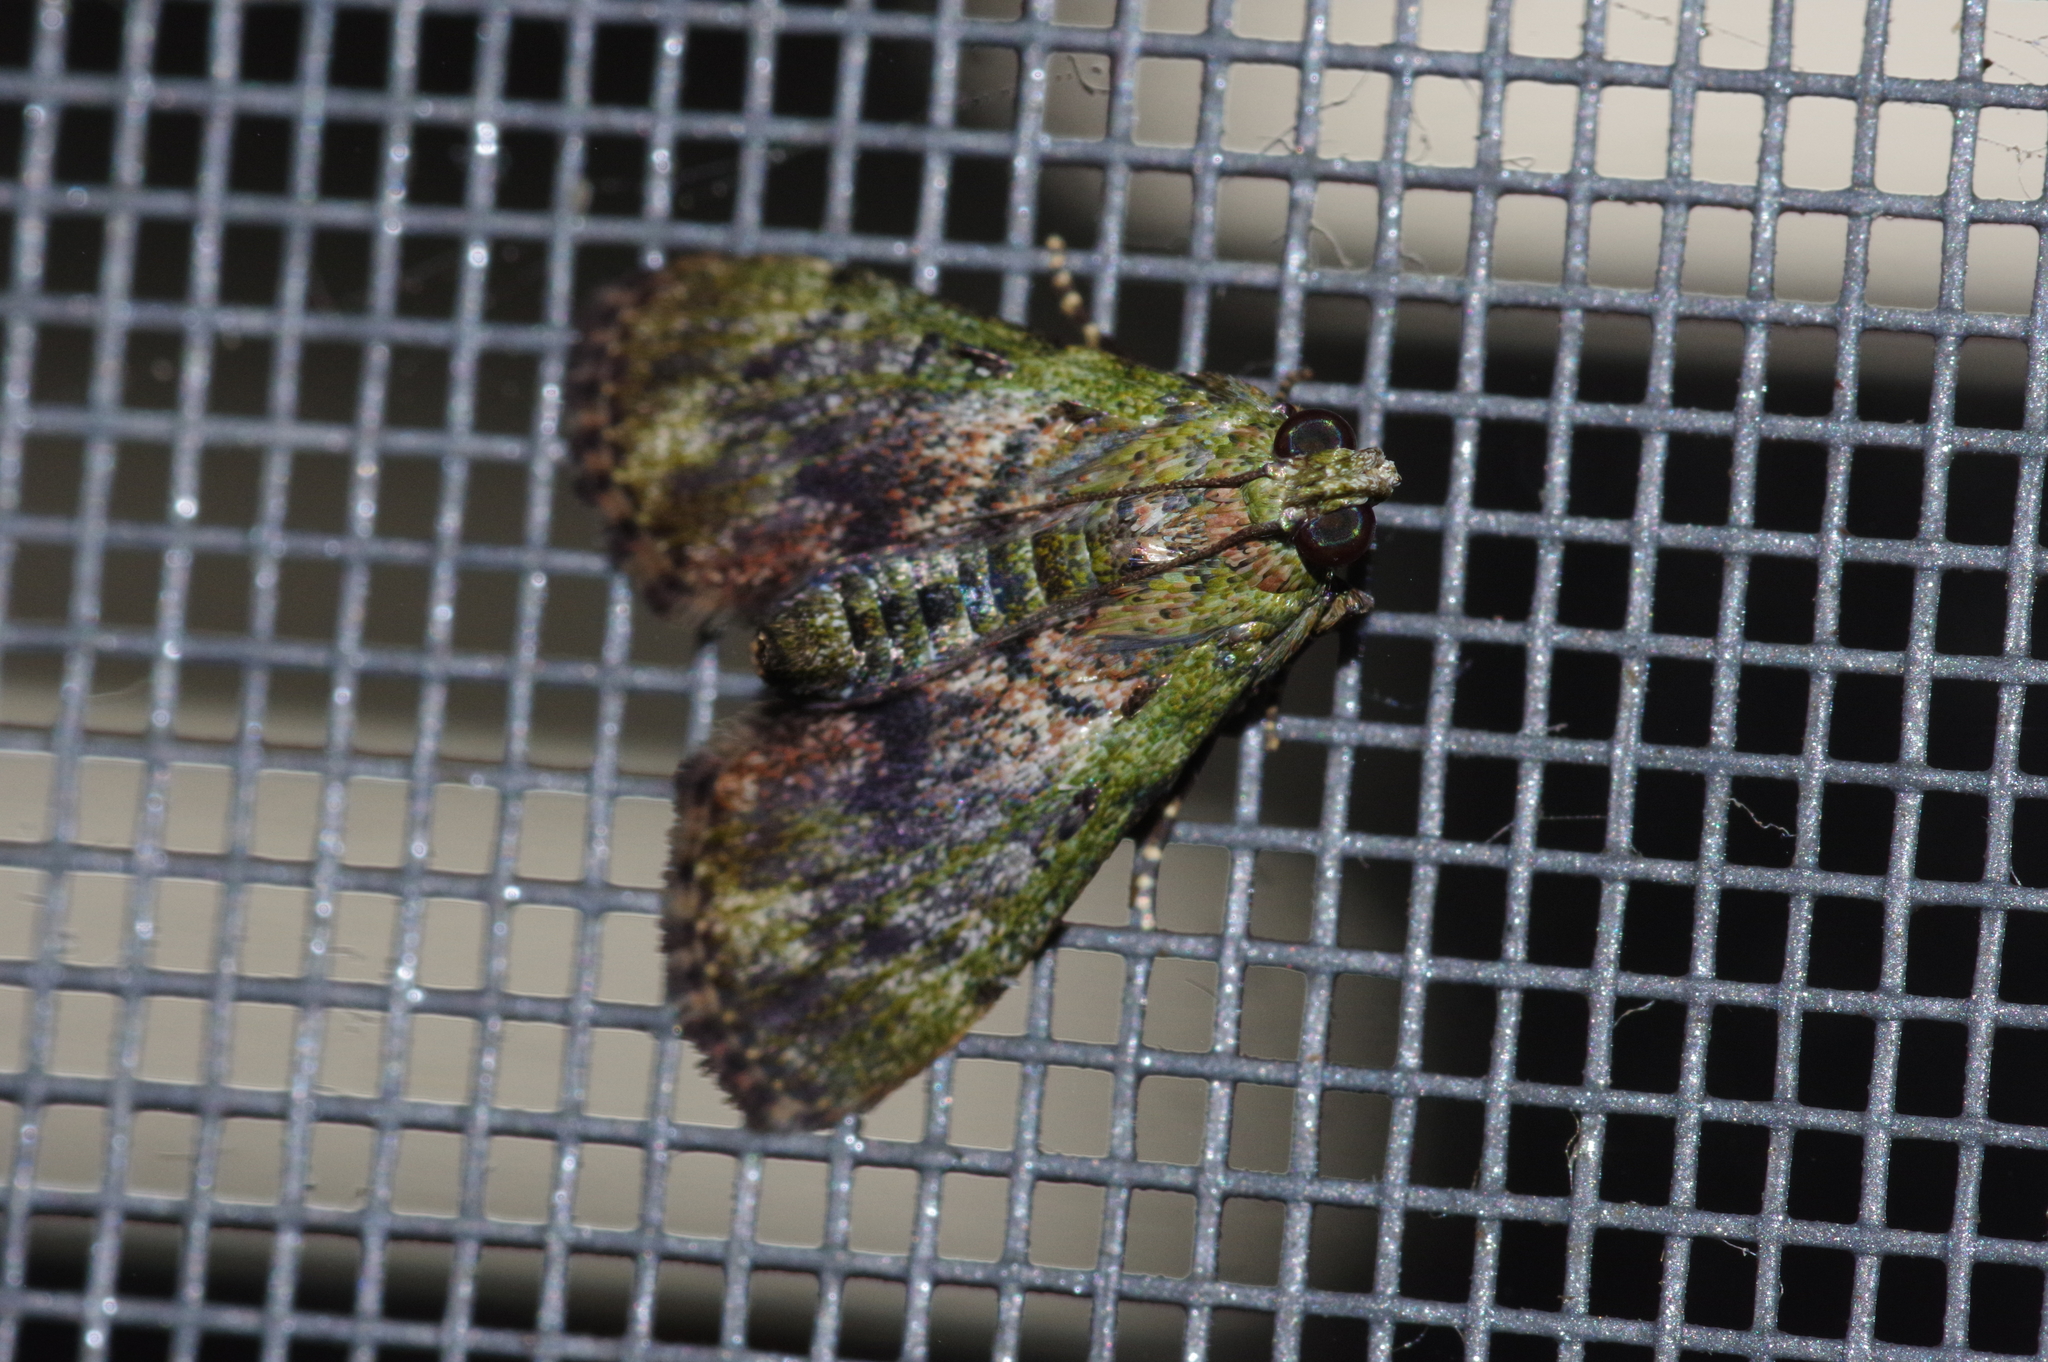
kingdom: Animalia
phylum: Arthropoda
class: Insecta
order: Lepidoptera
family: Pyralidae
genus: Lamida
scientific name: Lamida sordidalis
